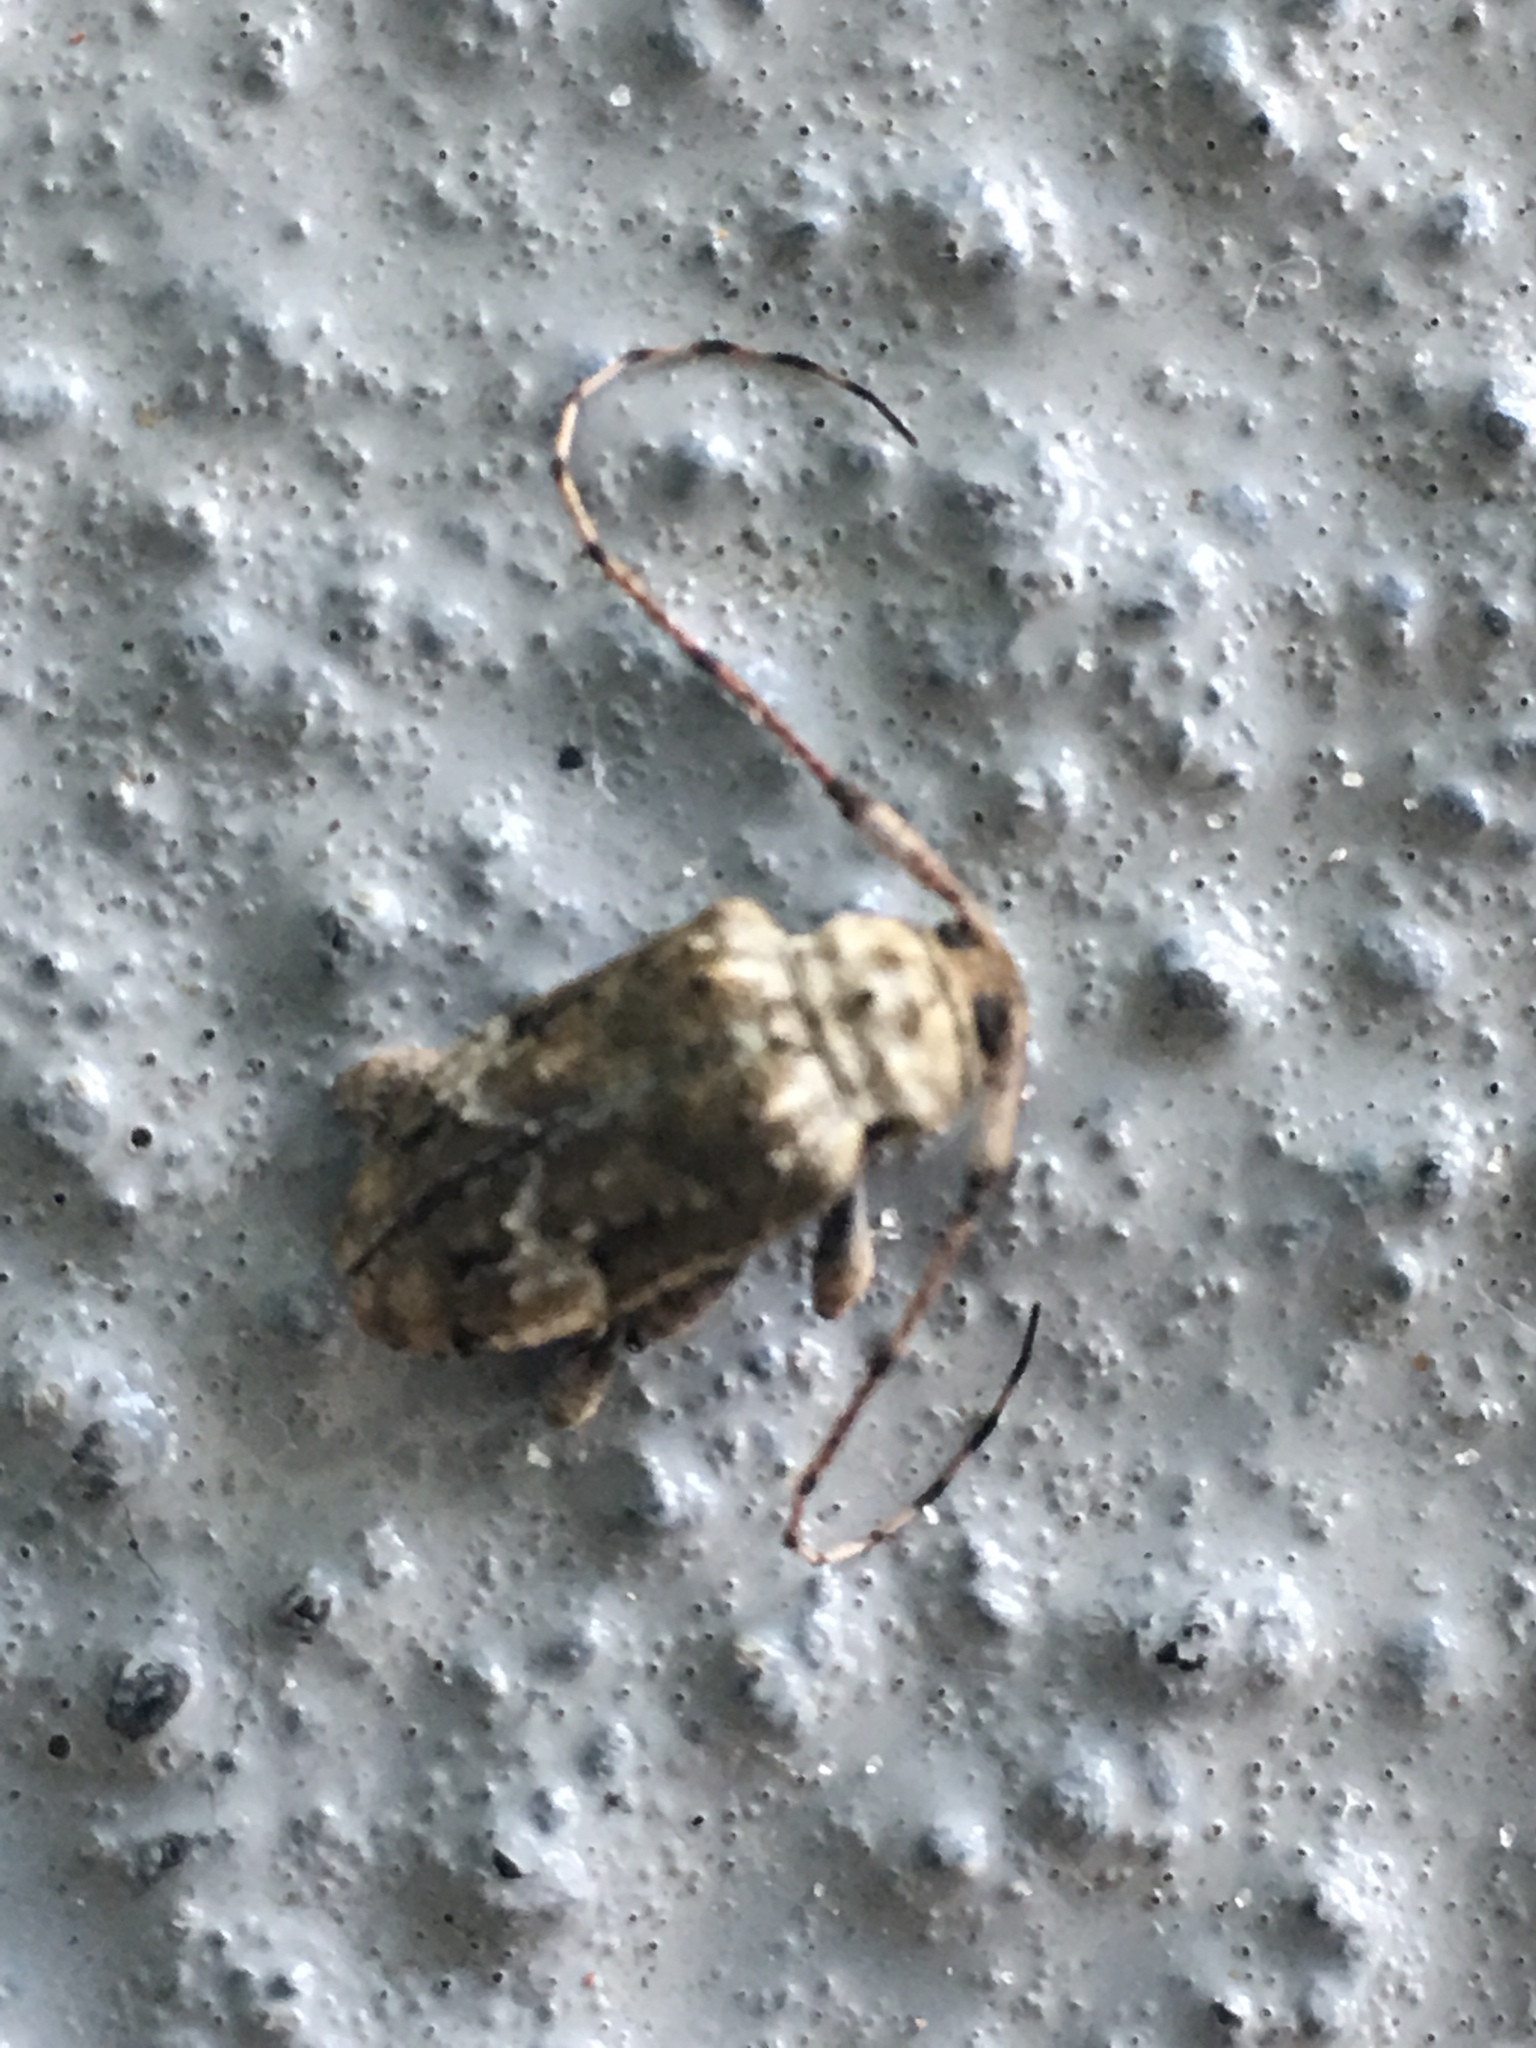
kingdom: Animalia
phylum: Arthropoda
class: Insecta
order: Coleoptera
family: Cerambycidae
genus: Leptostylopsis
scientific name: Leptostylopsis planidorsus
